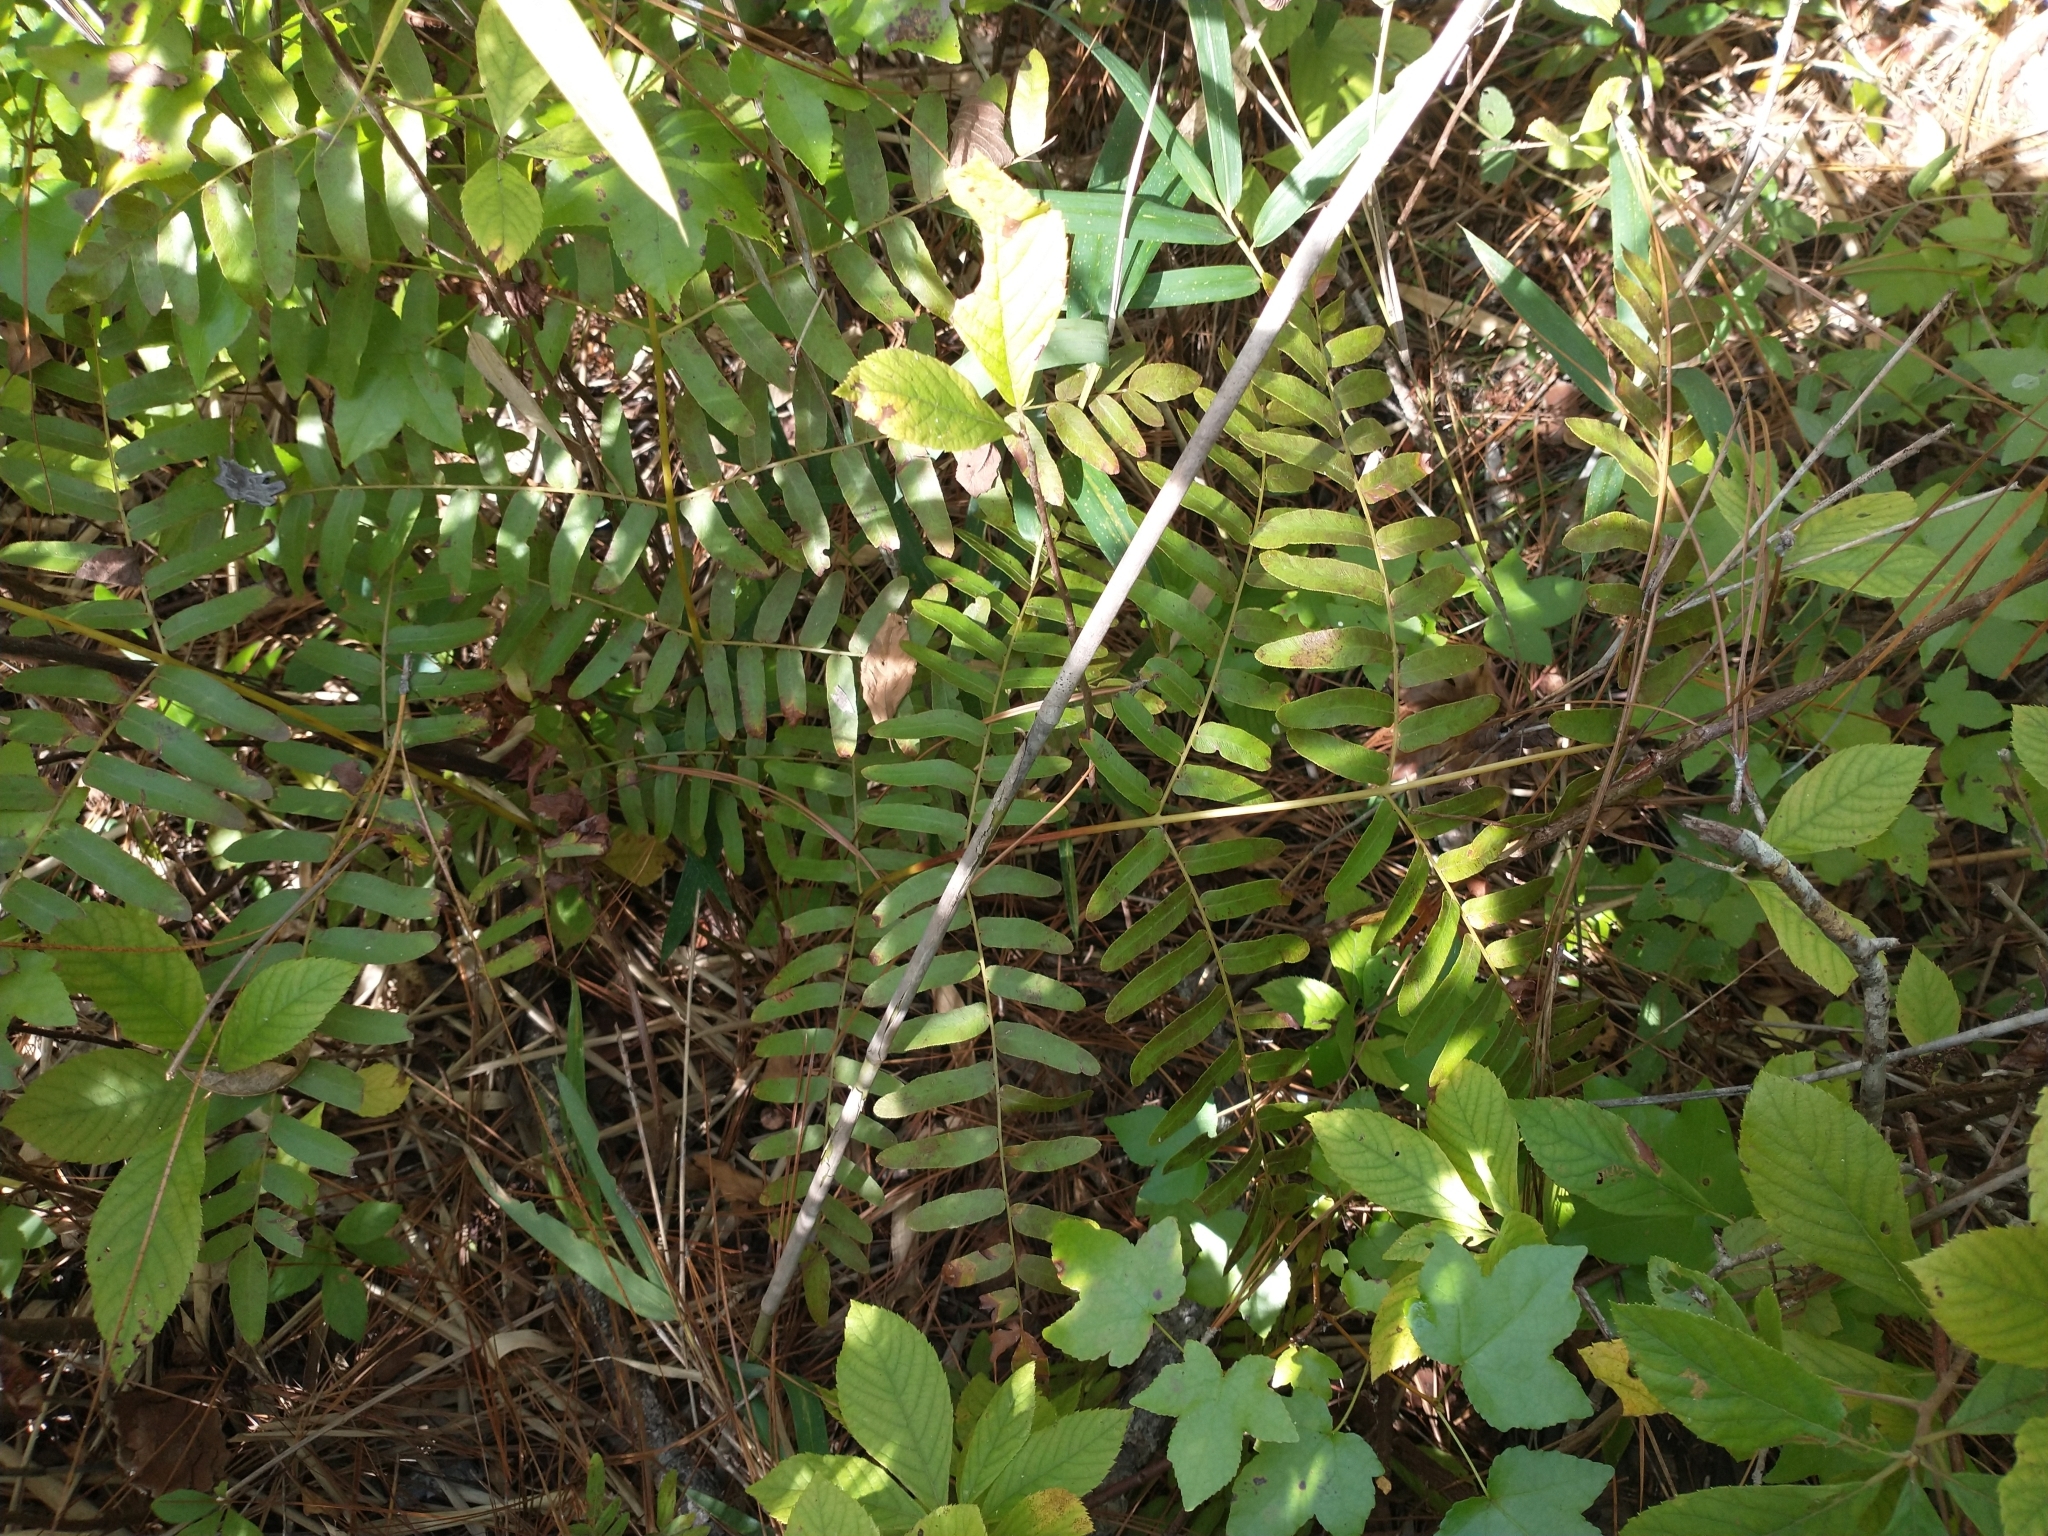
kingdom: Plantae
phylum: Tracheophyta
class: Polypodiopsida
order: Osmundales
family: Osmundaceae
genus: Osmunda
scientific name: Osmunda spectabilis
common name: American royal fern
